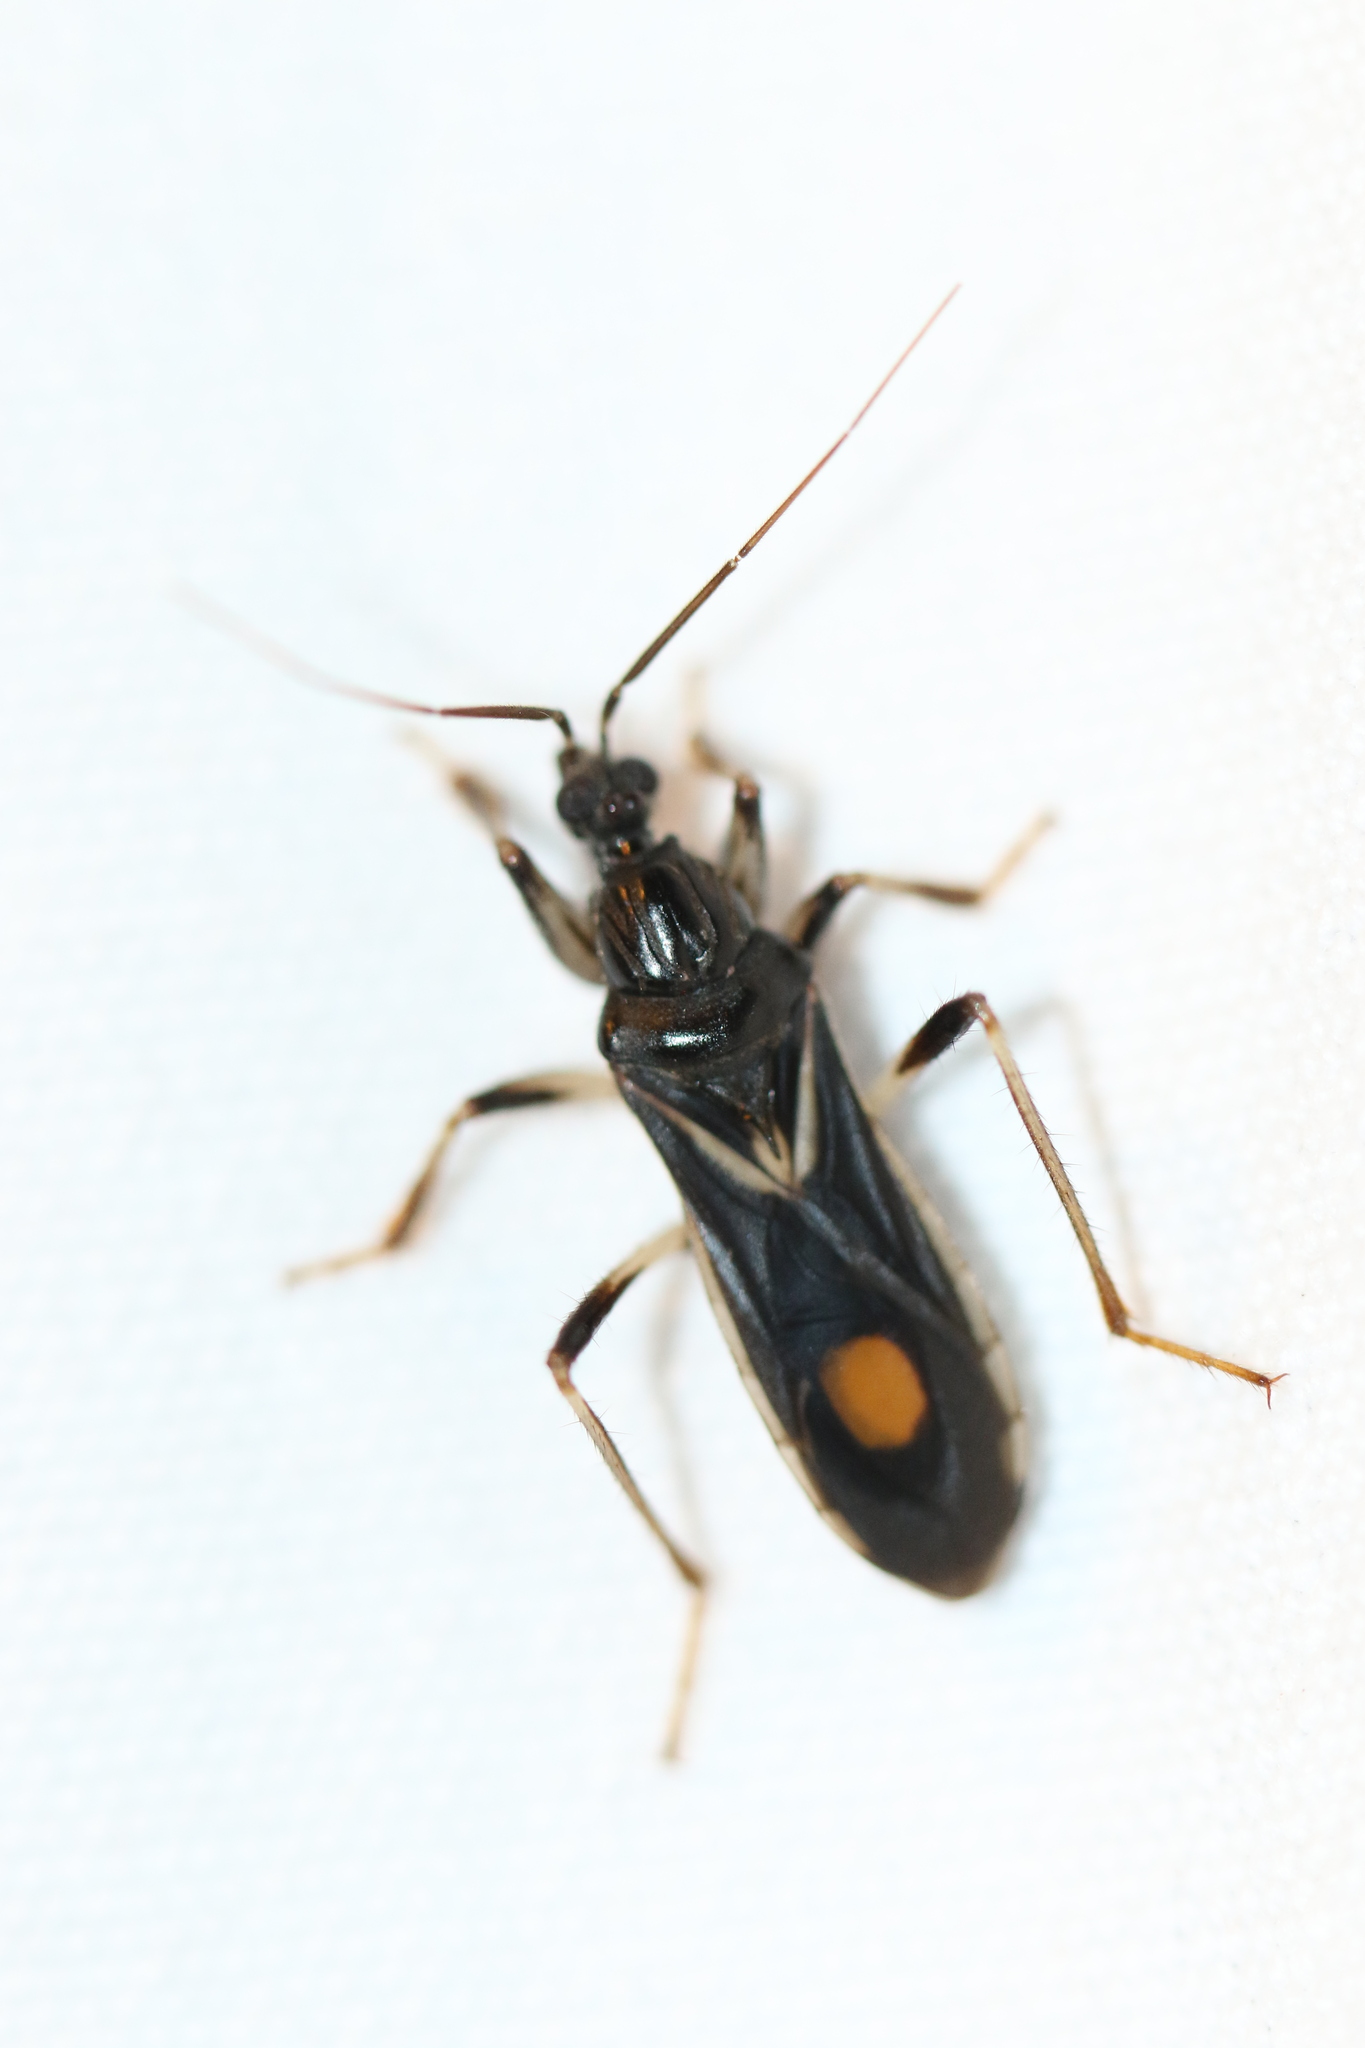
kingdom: Animalia
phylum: Arthropoda
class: Insecta
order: Hemiptera
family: Reduviidae
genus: Rasahus
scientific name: Rasahus hamatus
